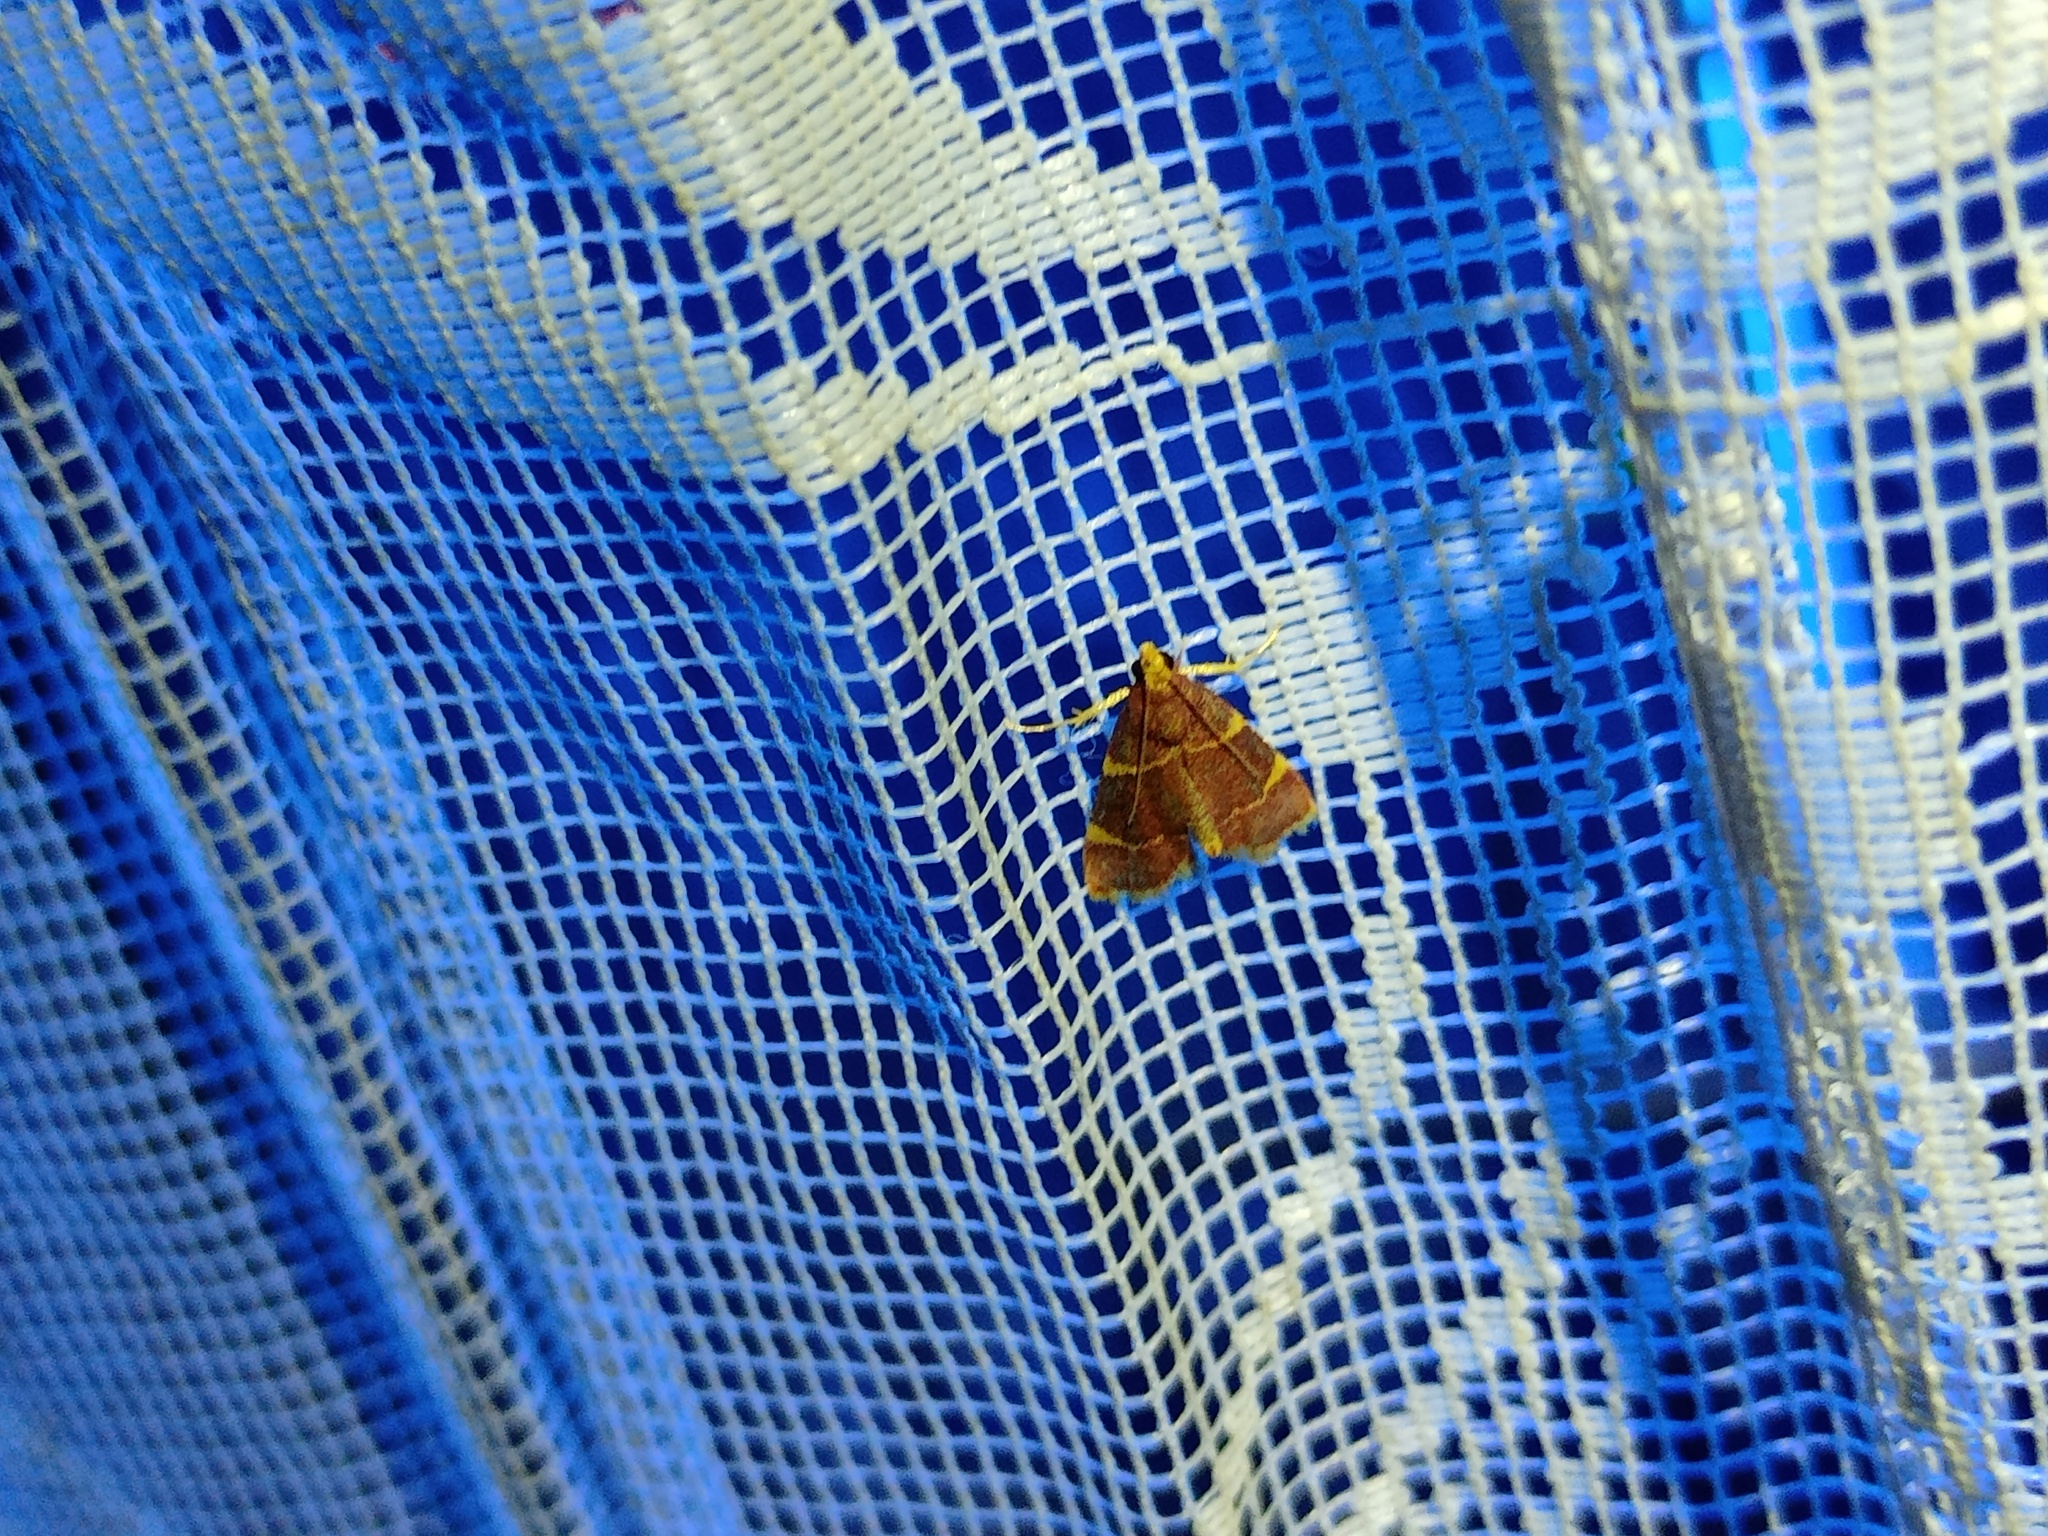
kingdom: Animalia
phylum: Arthropoda
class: Insecta
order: Lepidoptera
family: Pyralidae
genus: Hypsopygia
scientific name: Hypsopygia costalis
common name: Gold triangle
